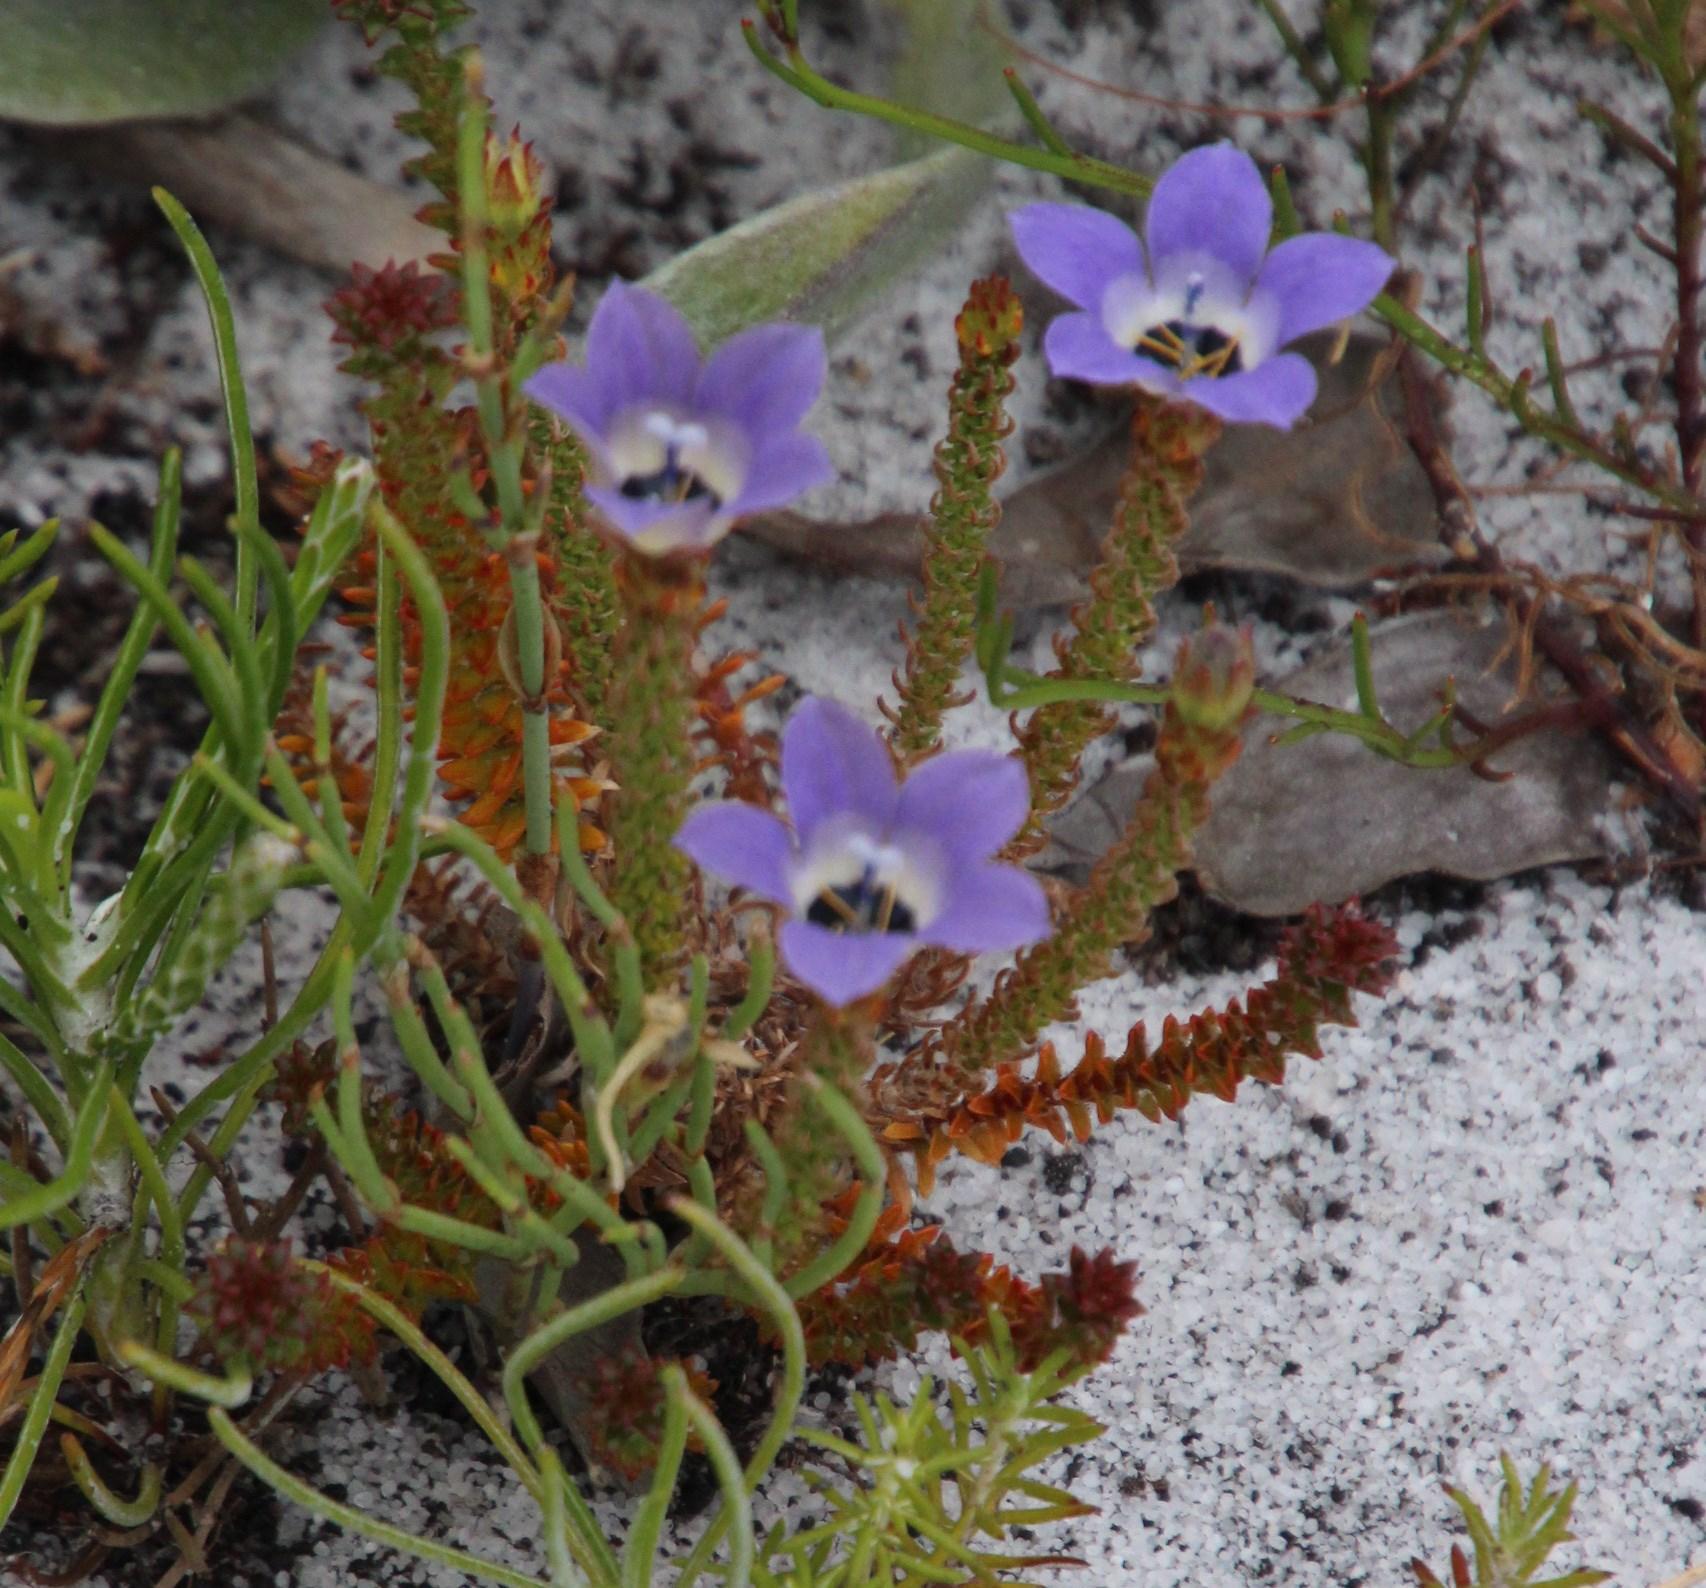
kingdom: Plantae
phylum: Tracheophyta
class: Magnoliopsida
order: Asterales
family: Campanulaceae
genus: Roella
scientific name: Roella triflora
